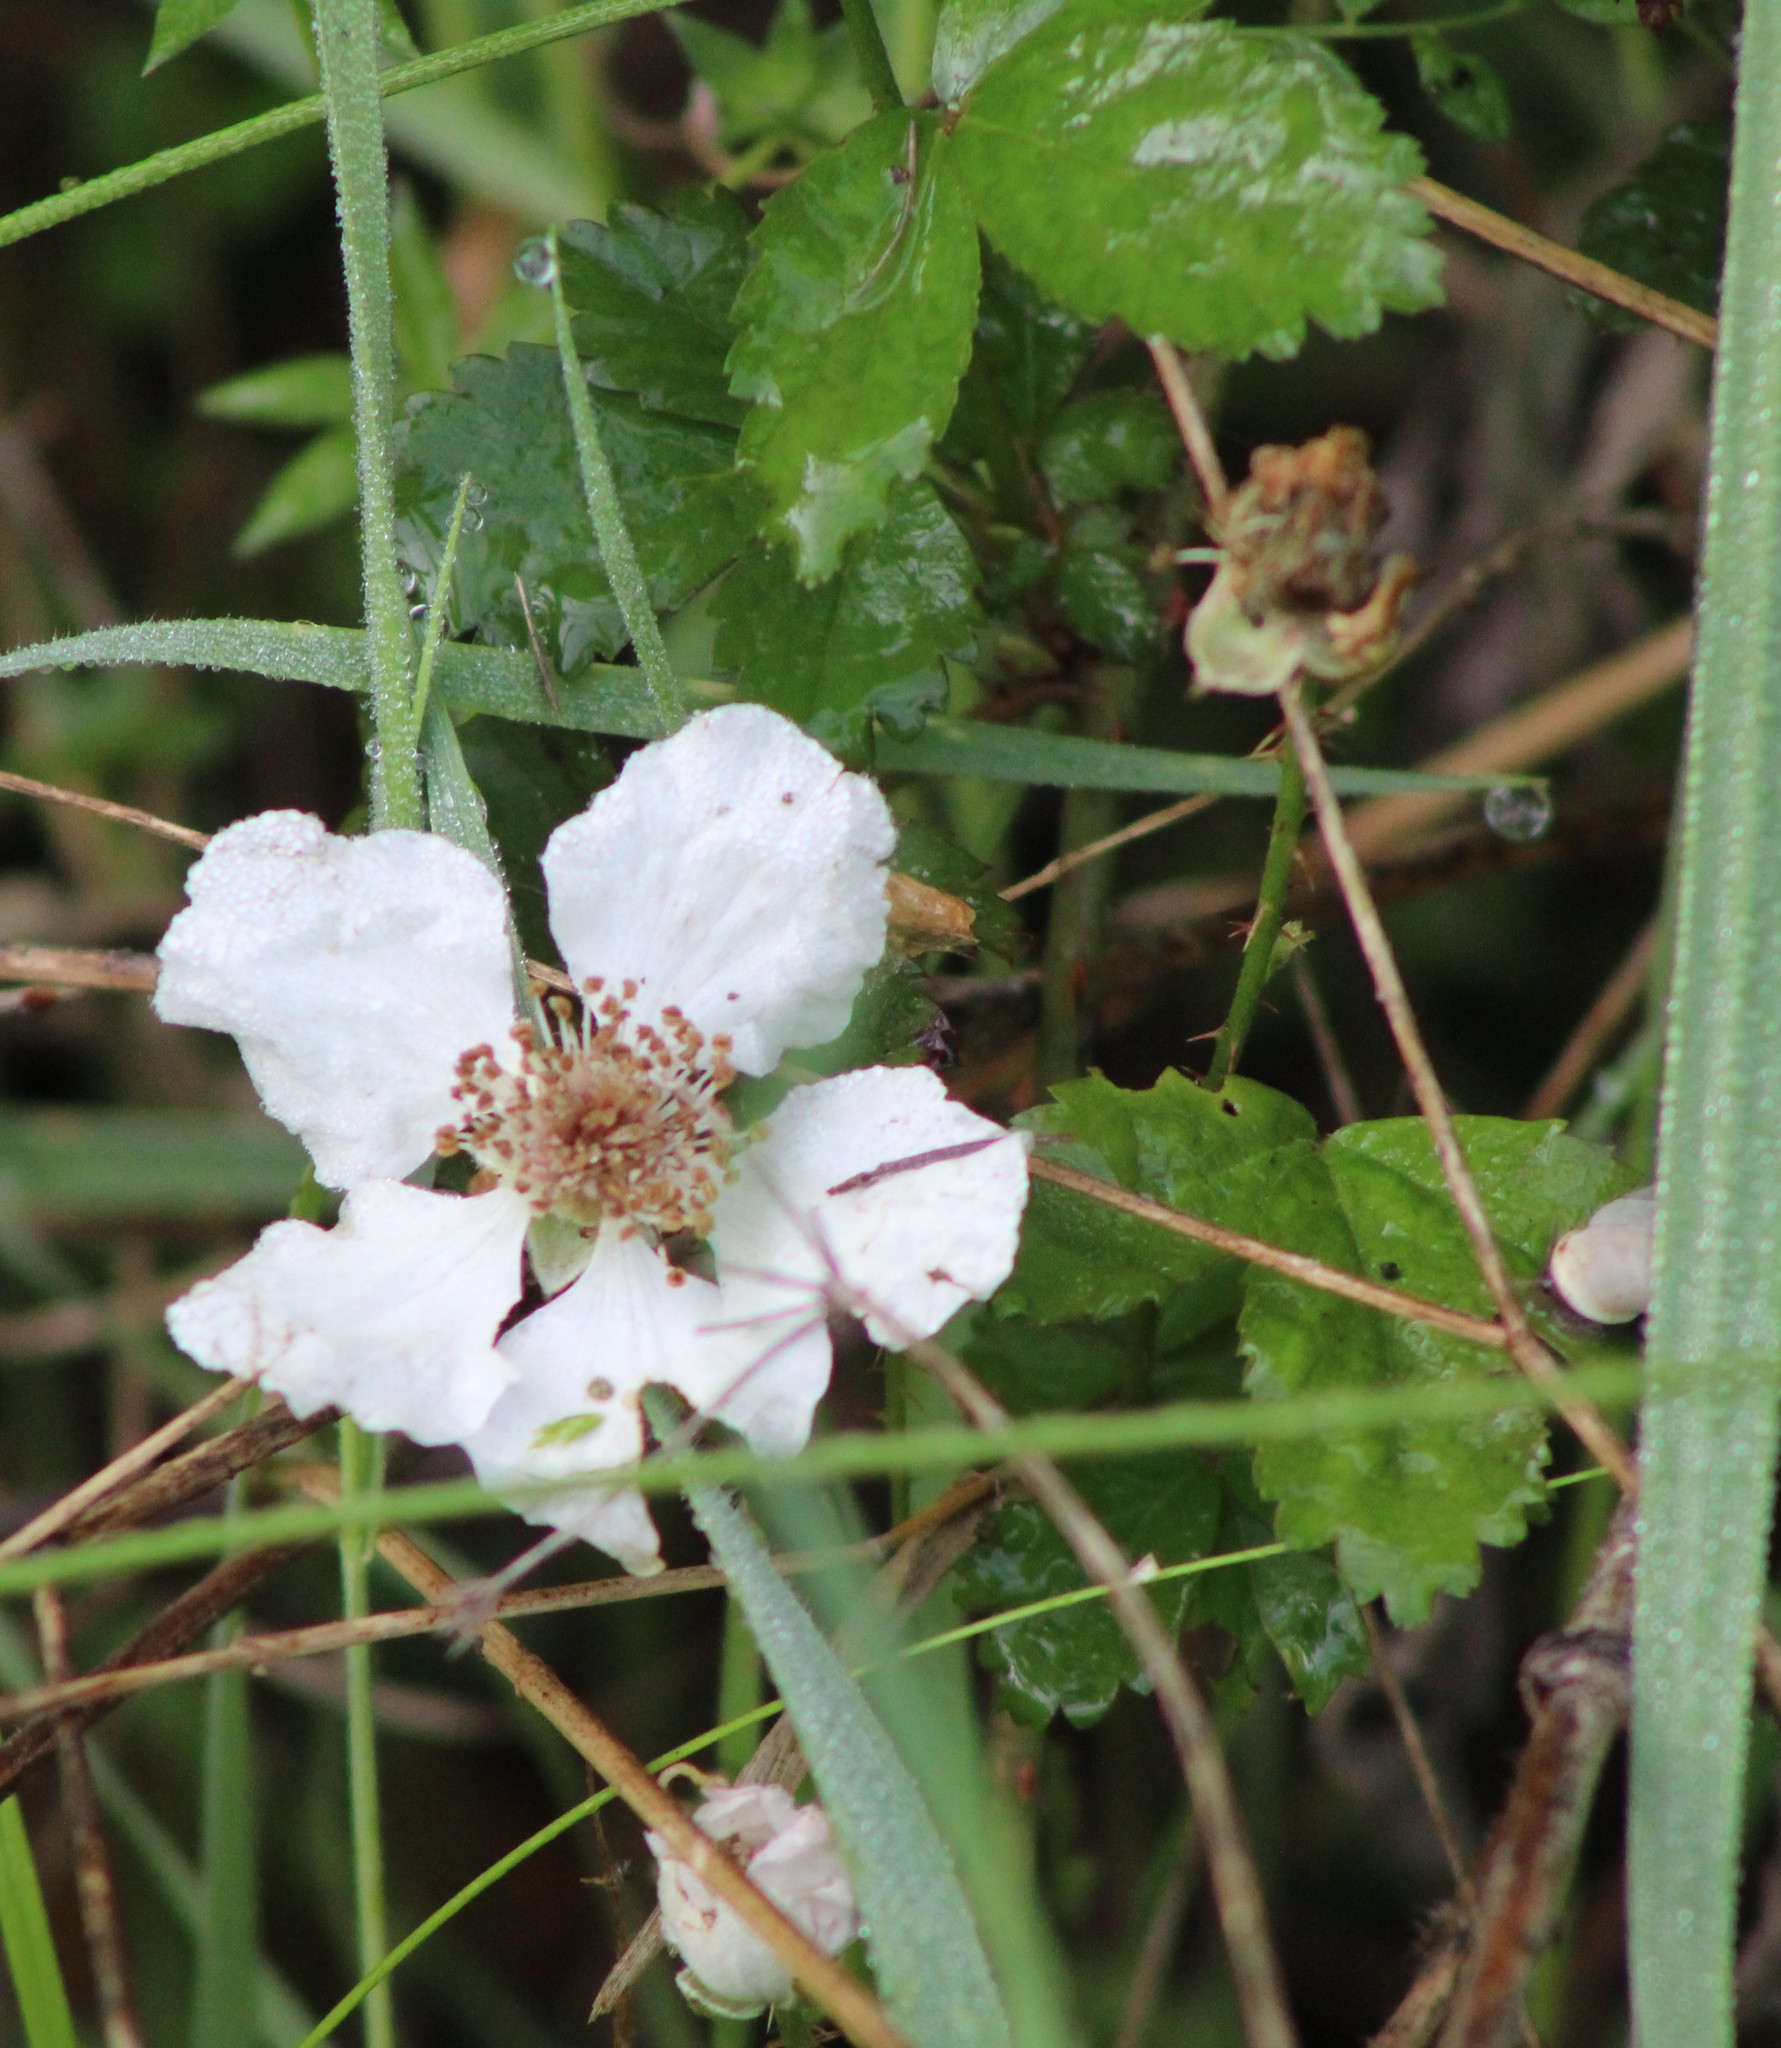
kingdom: Plantae
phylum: Tracheophyta
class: Magnoliopsida
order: Rosales
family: Rosaceae
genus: Rubus
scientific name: Rubus trivialis
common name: Southern dewberry
